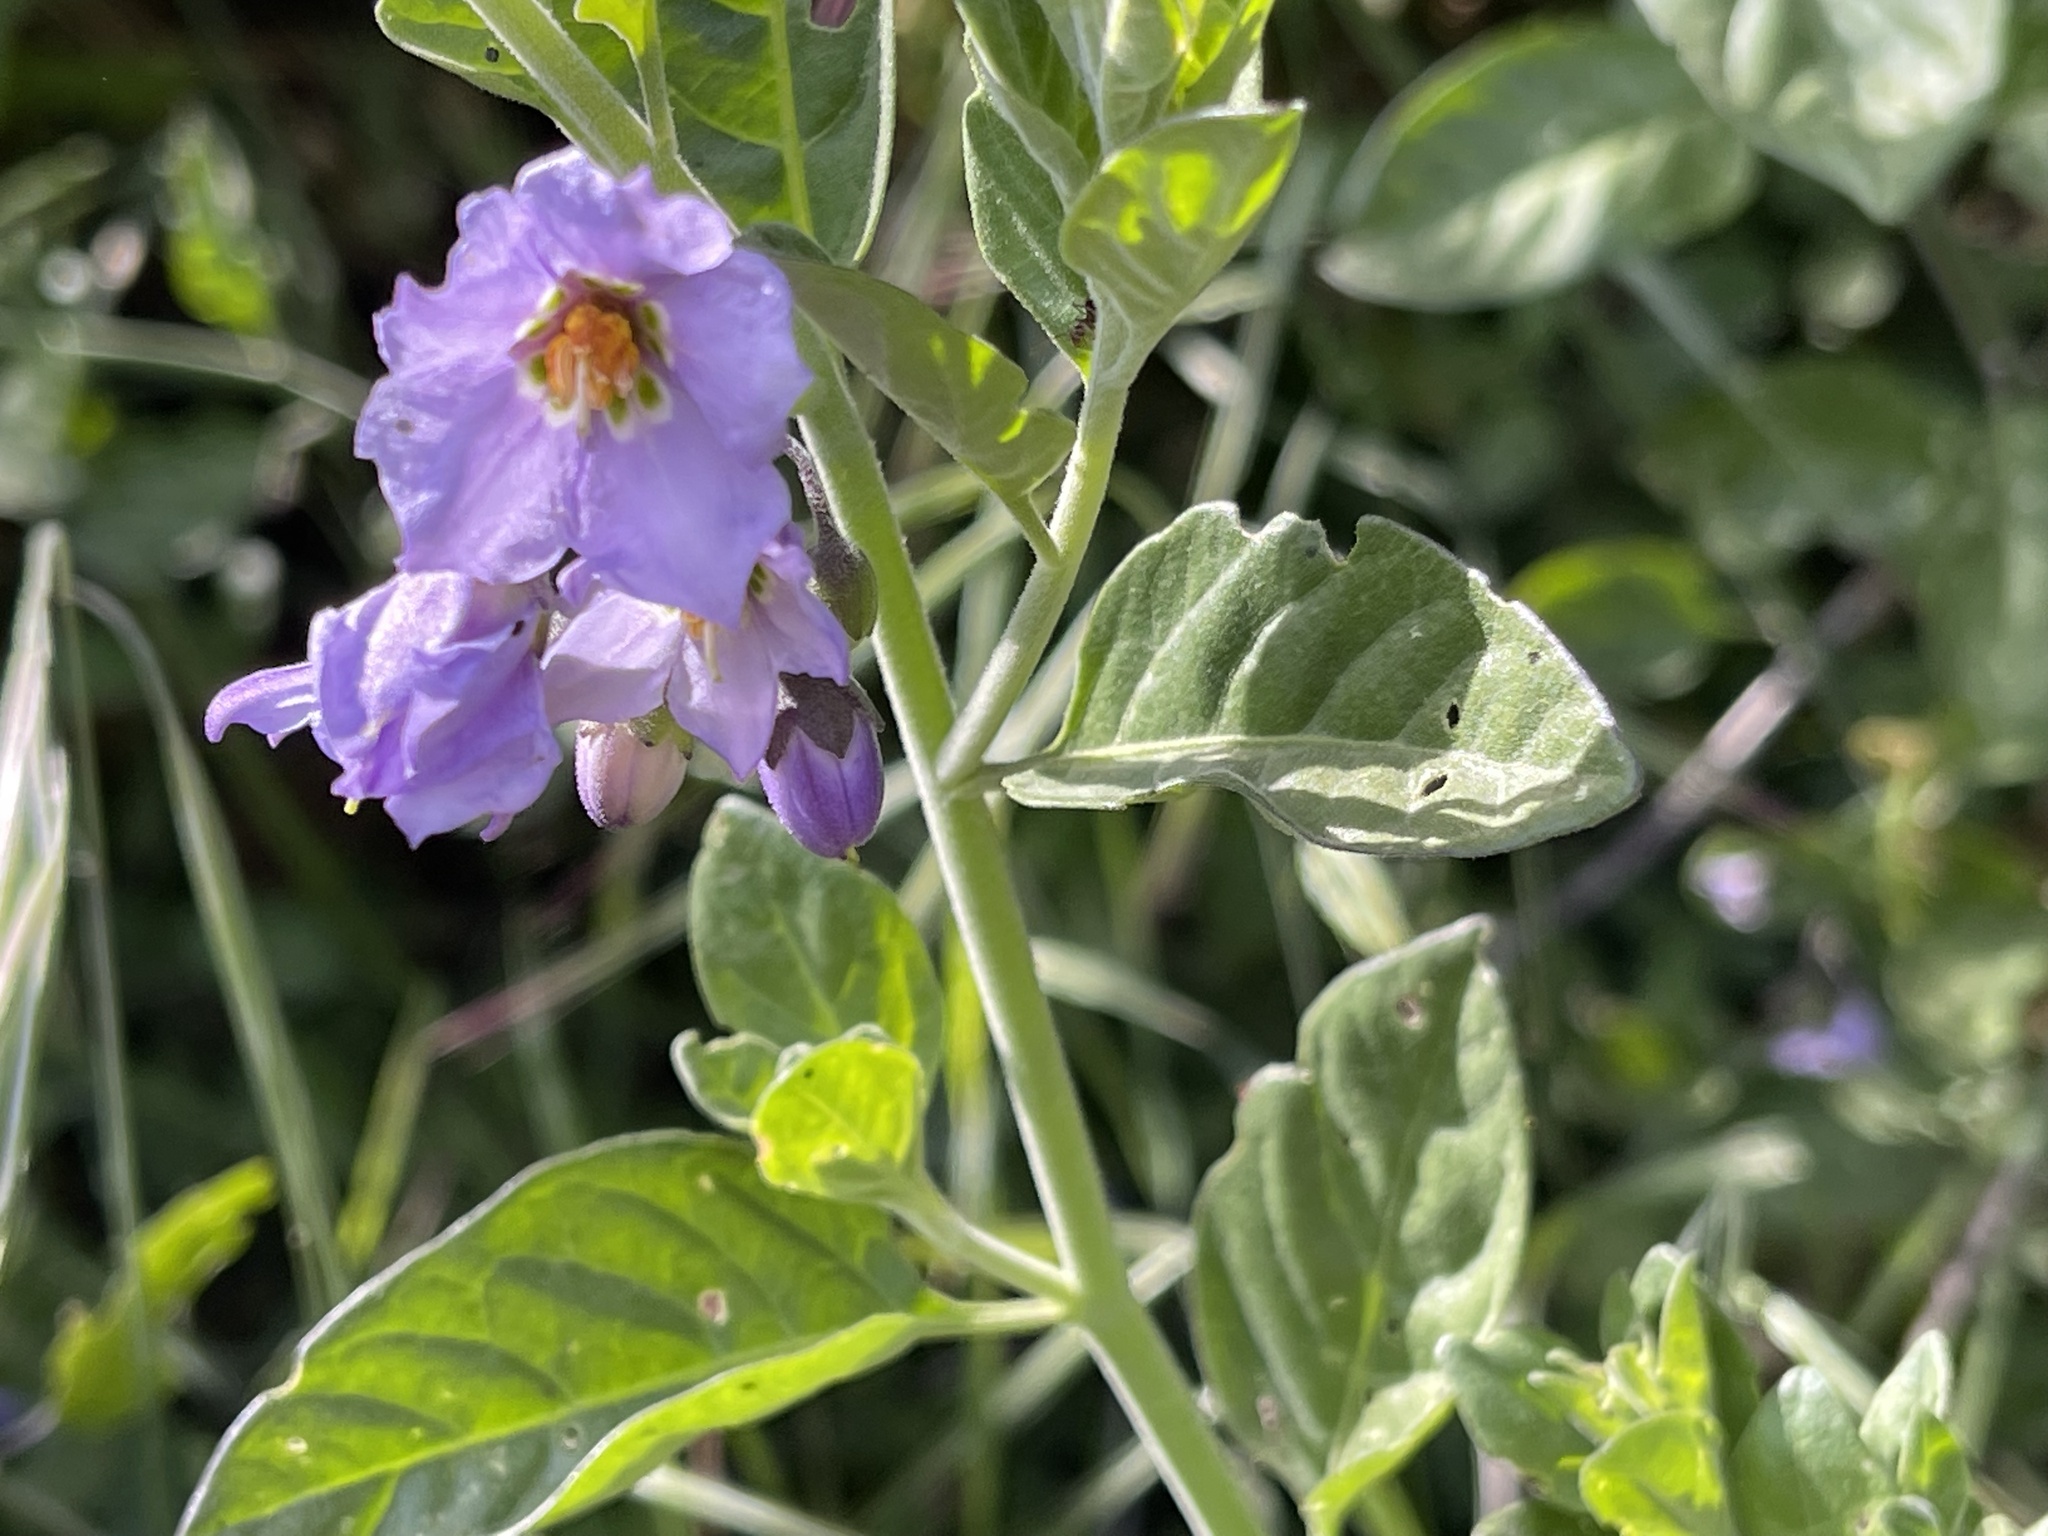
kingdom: Plantae
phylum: Tracheophyta
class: Magnoliopsida
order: Solanales
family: Solanaceae
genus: Solanum
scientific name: Solanum umbelliferum
